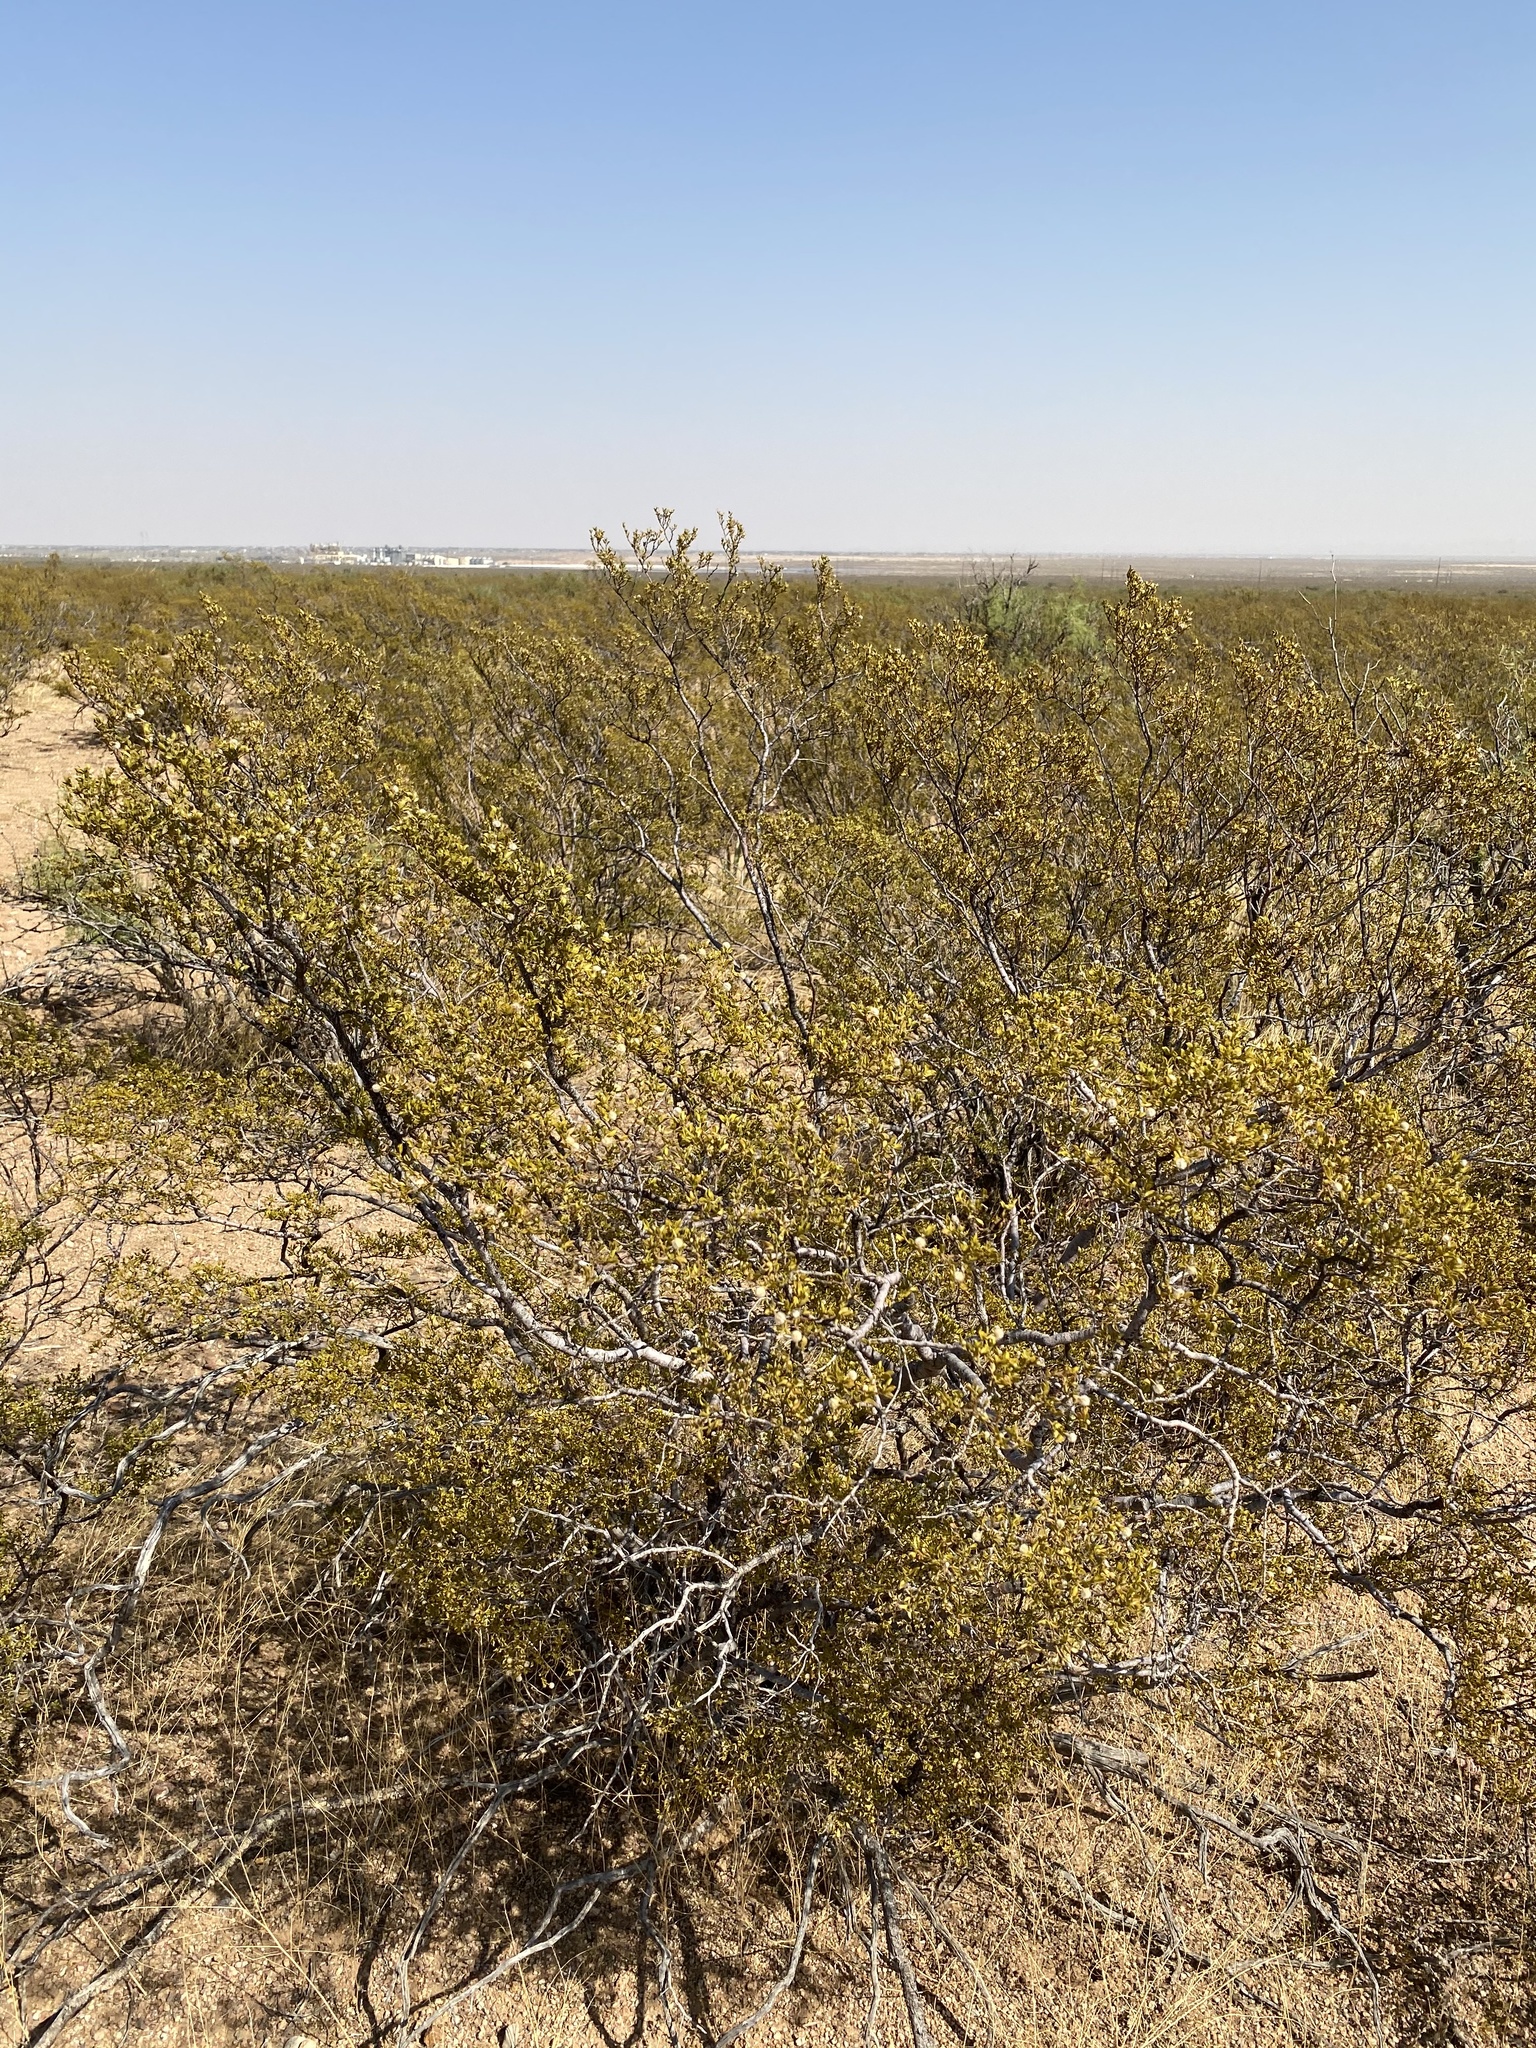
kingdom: Plantae
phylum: Tracheophyta
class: Magnoliopsida
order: Zygophyllales
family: Zygophyllaceae
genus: Larrea
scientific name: Larrea tridentata
